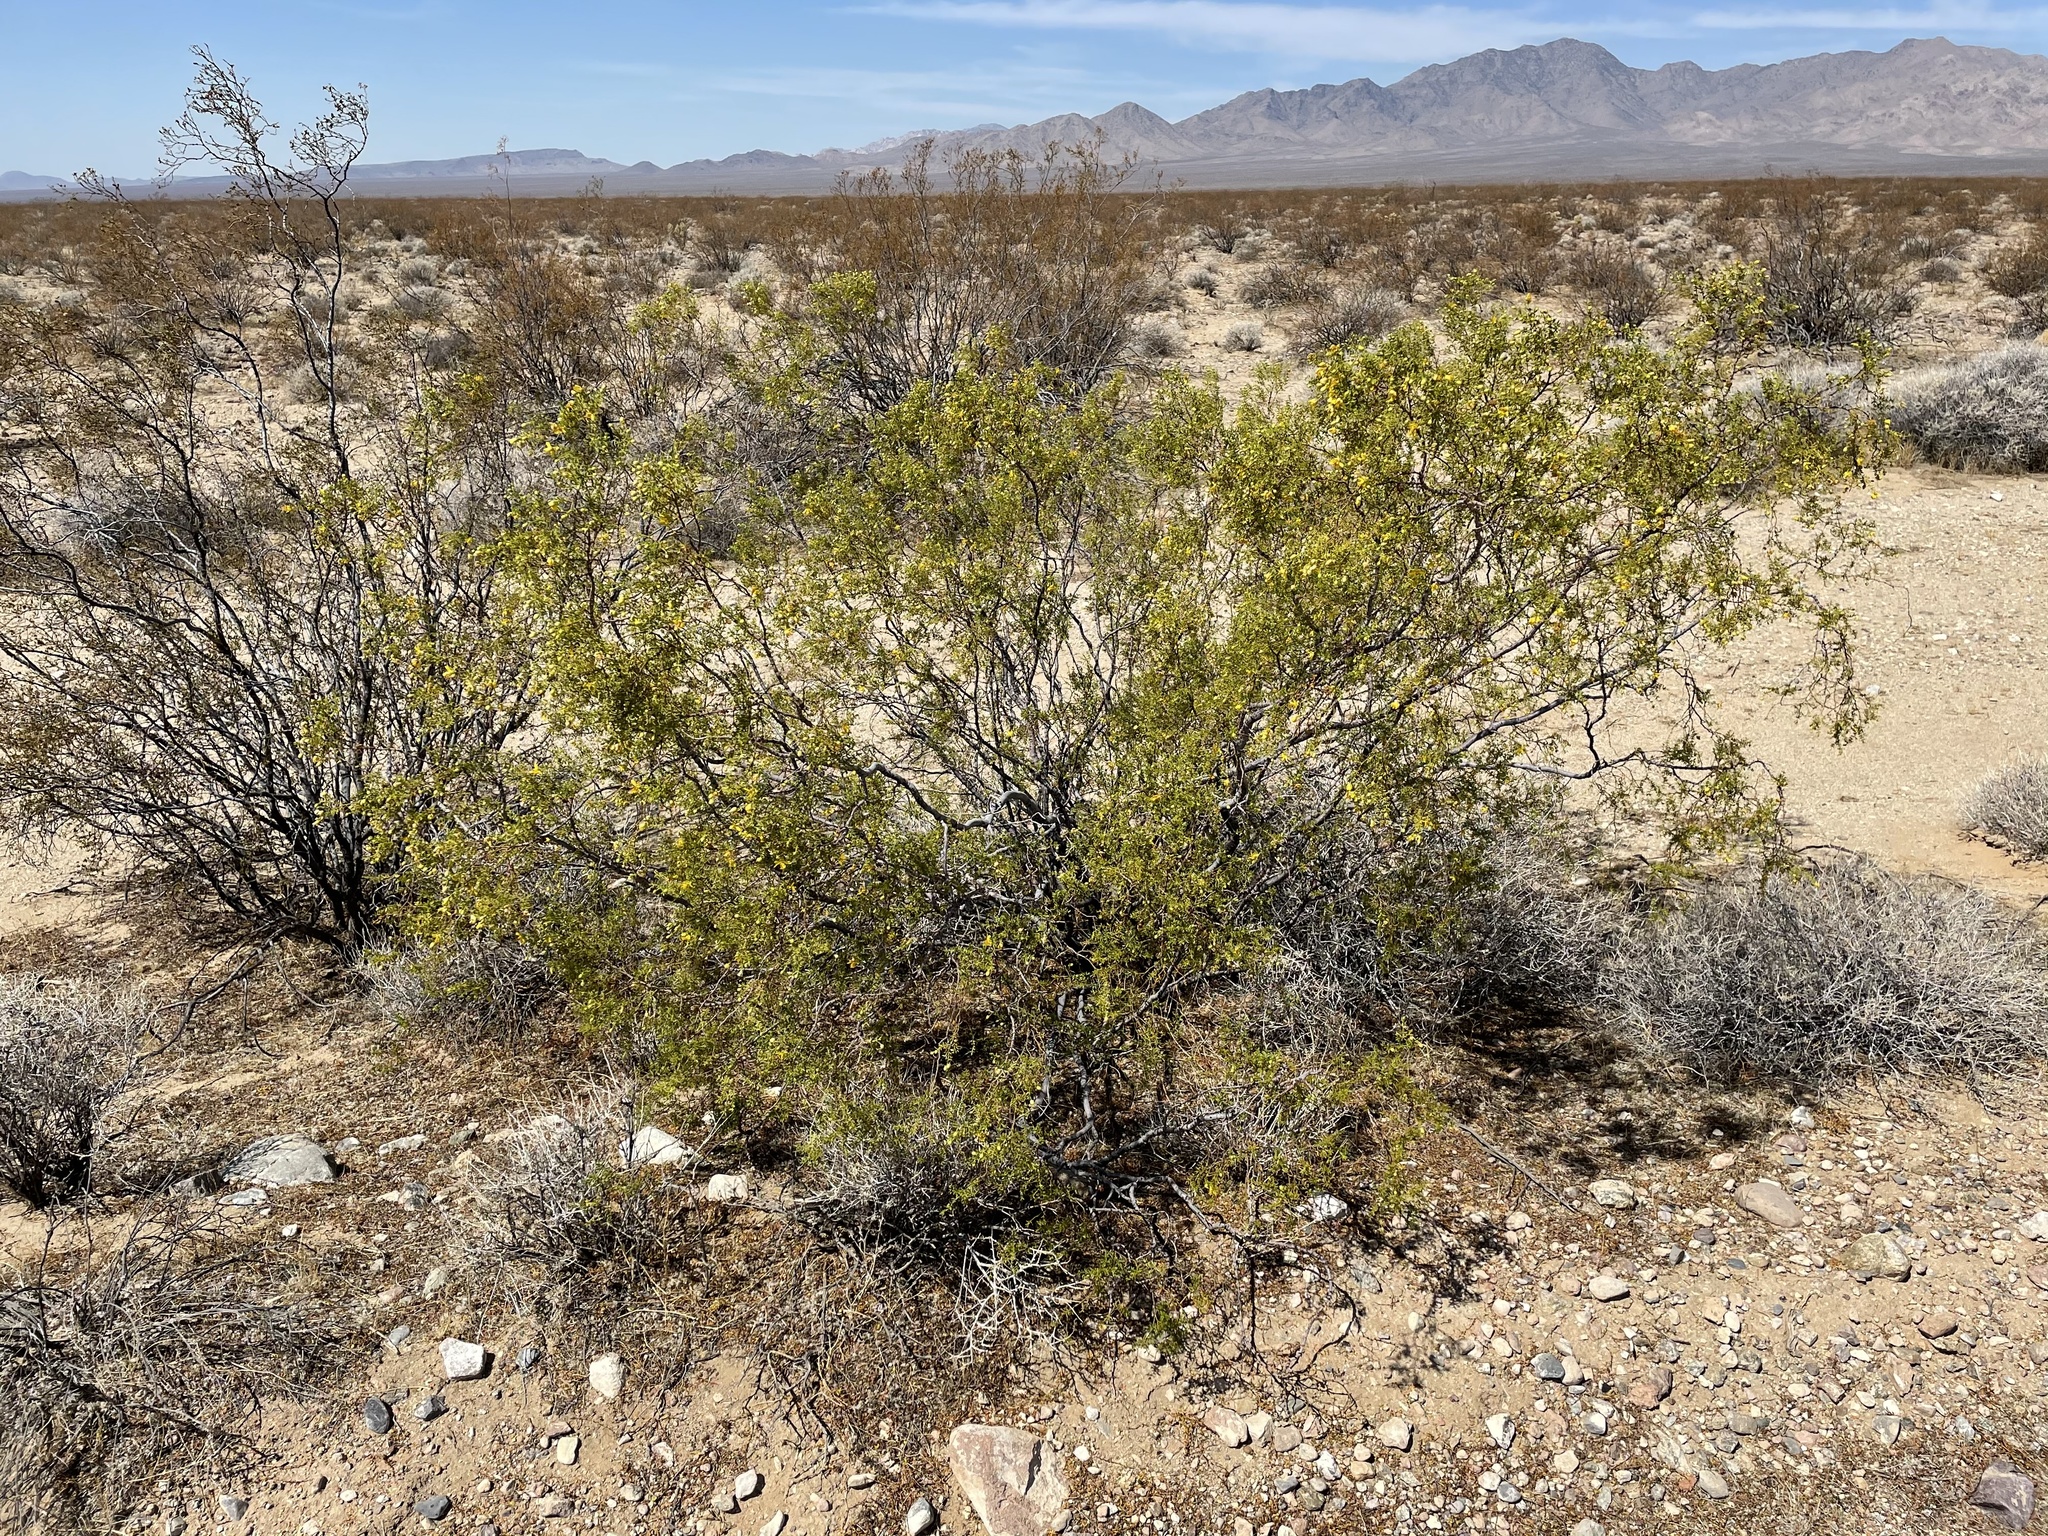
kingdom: Plantae
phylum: Tracheophyta
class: Magnoliopsida
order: Zygophyllales
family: Zygophyllaceae
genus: Larrea
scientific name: Larrea tridentata
